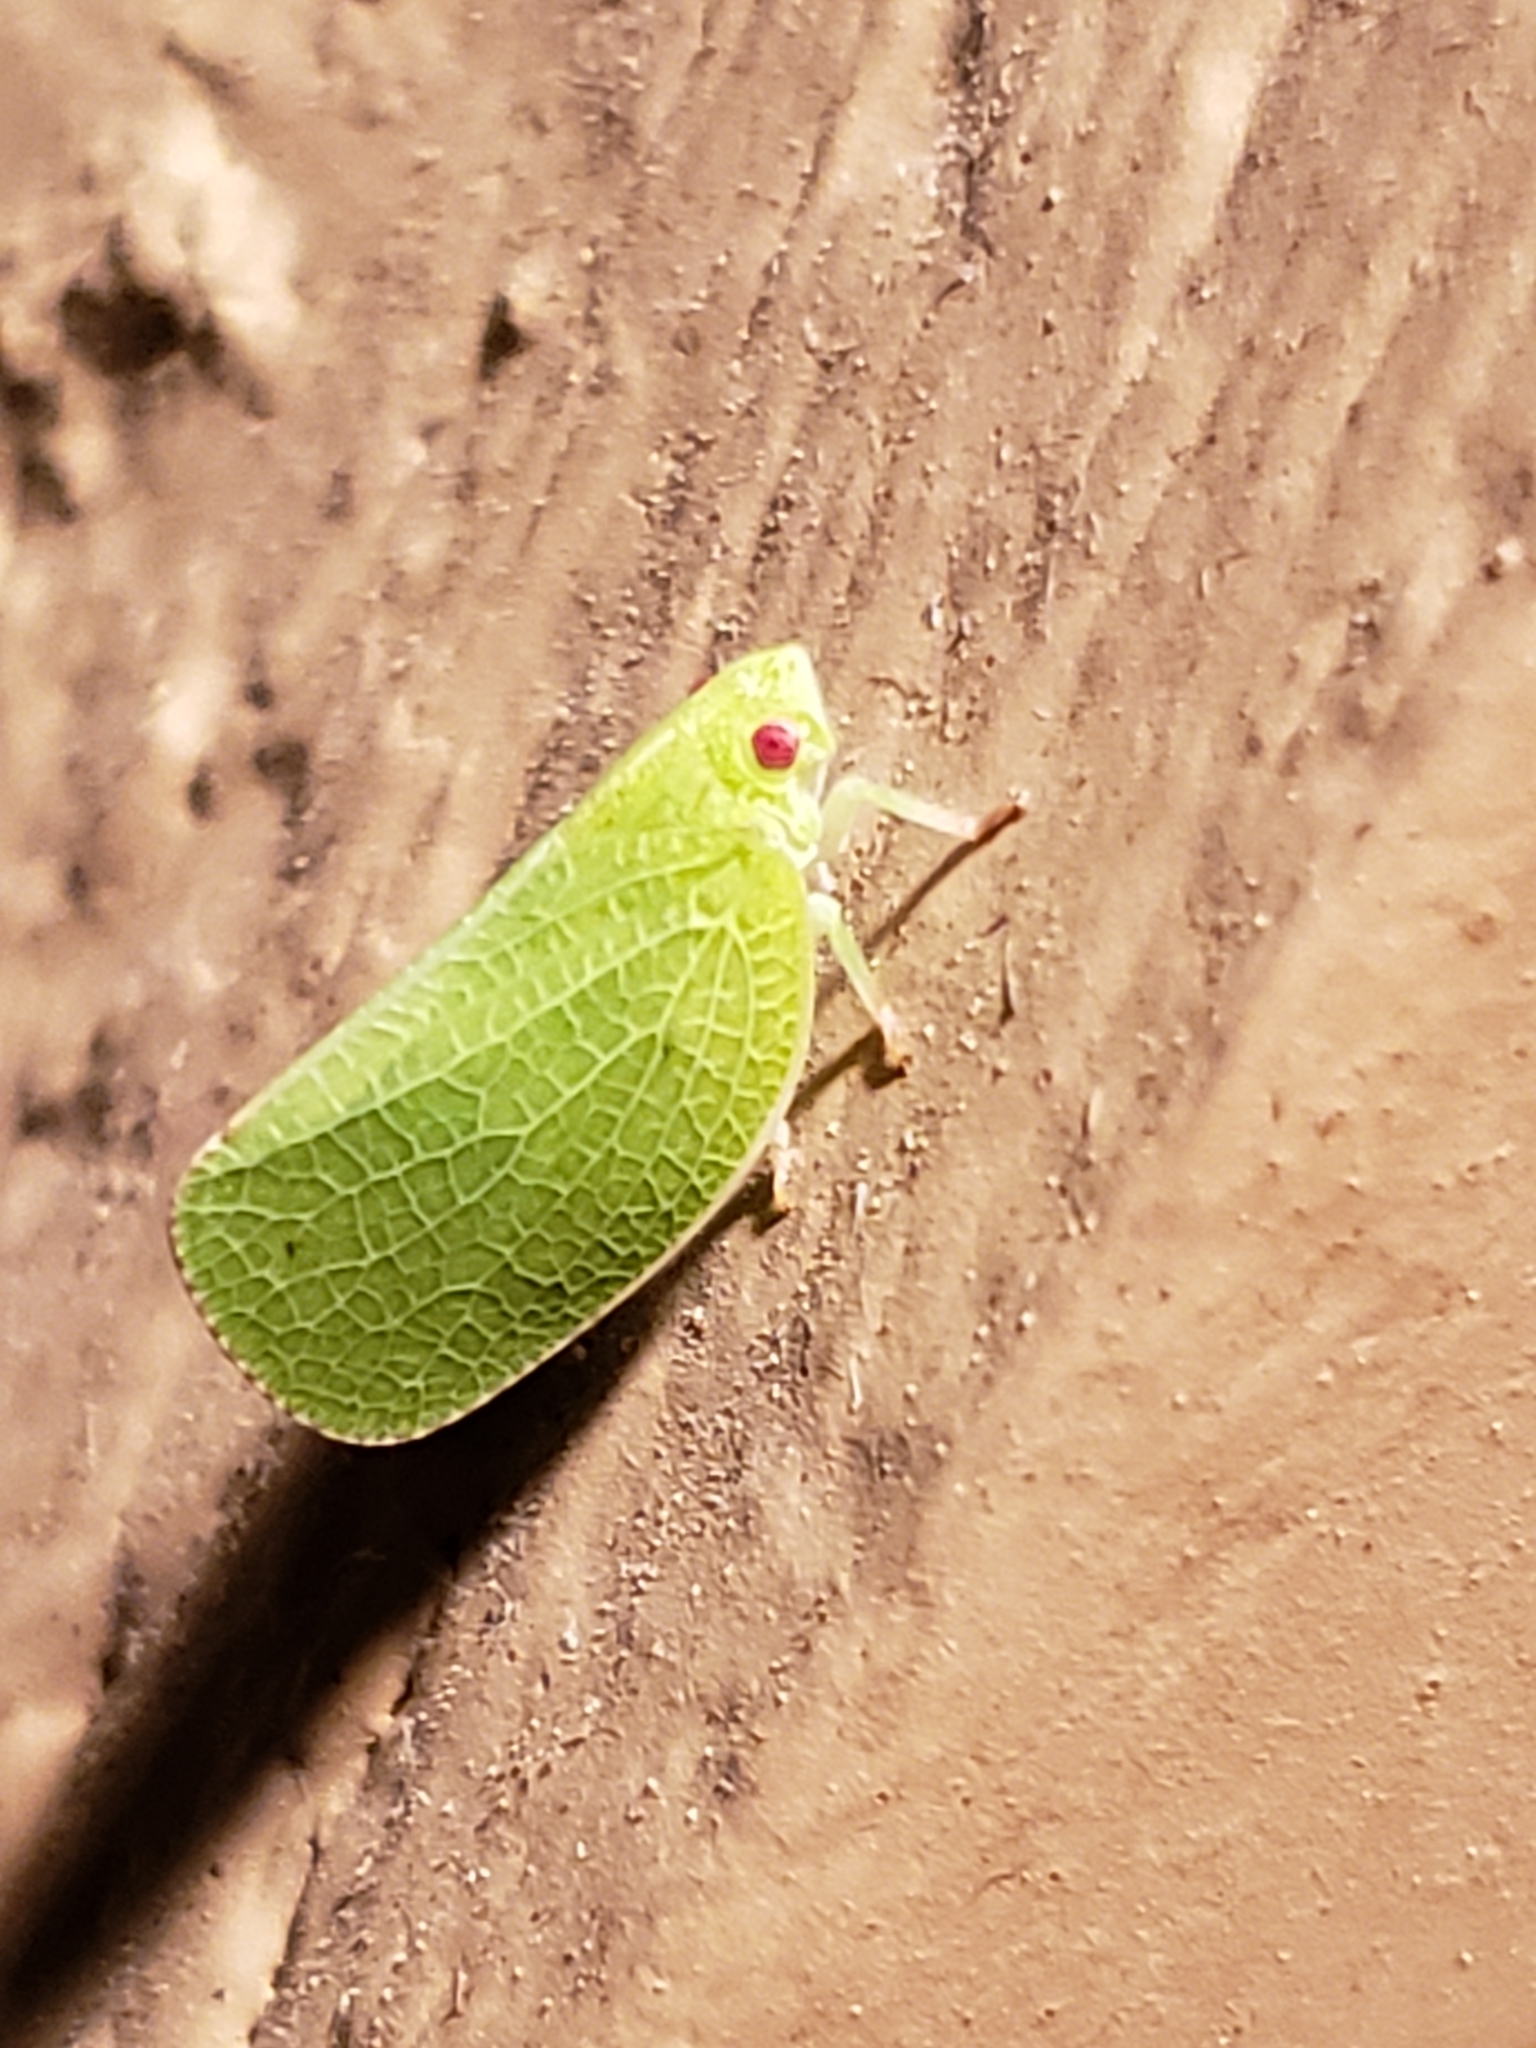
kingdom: Animalia
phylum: Arthropoda
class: Insecta
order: Hemiptera
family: Acanaloniidae
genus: Acanalonia
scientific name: Acanalonia conica
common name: Green cone-headed planthopper
